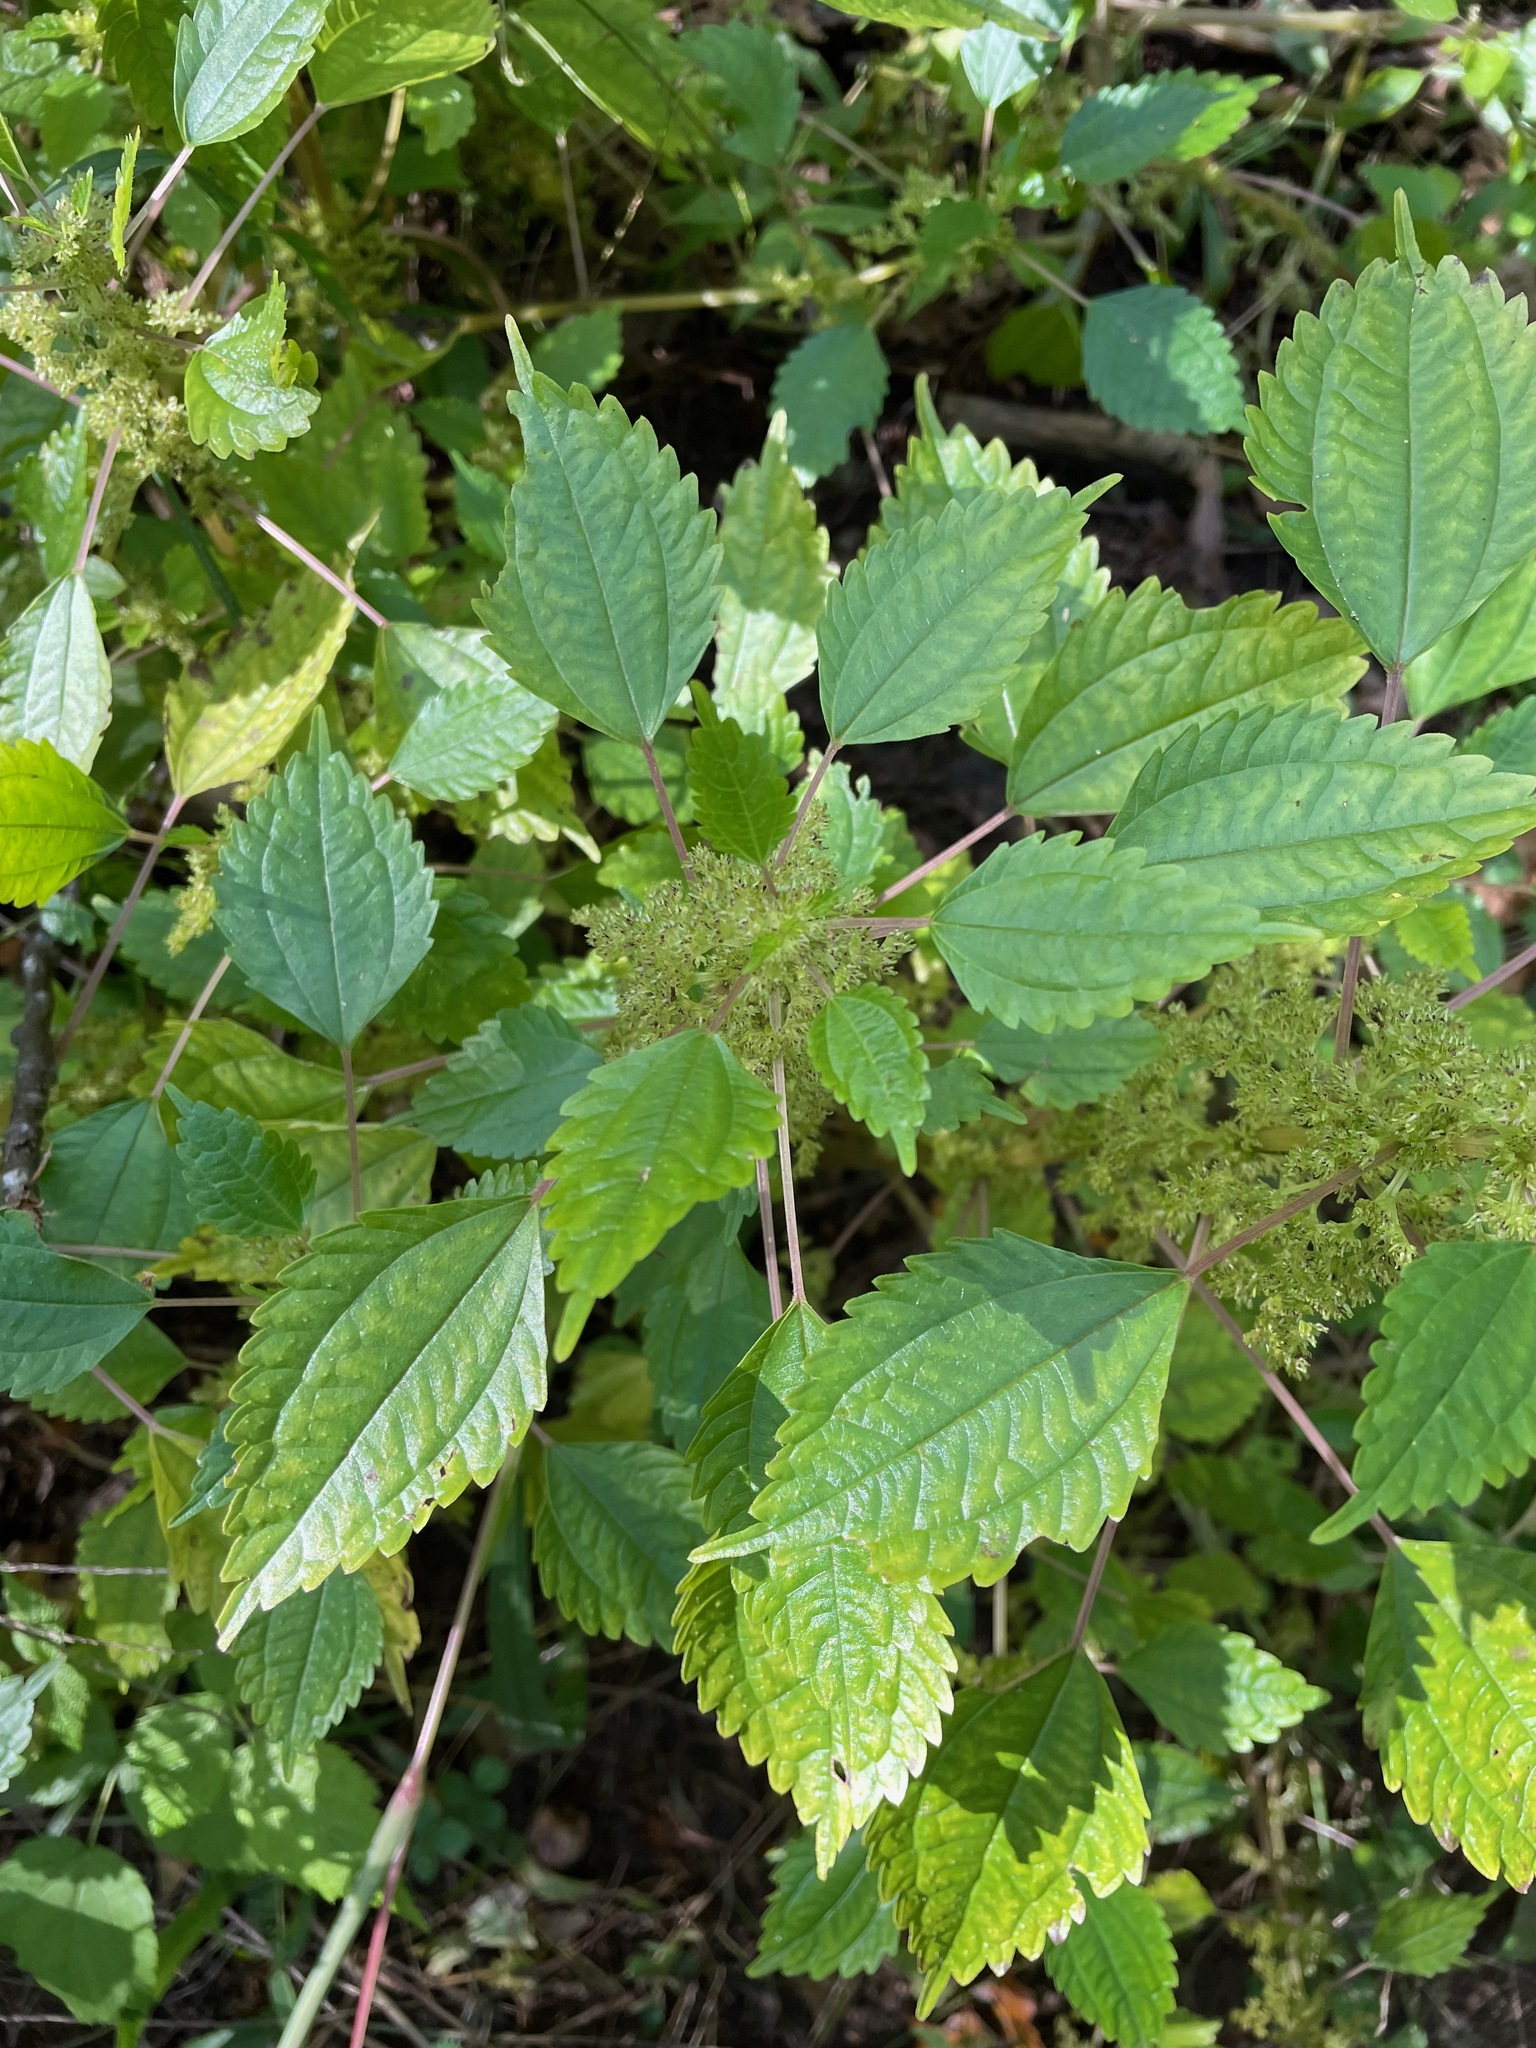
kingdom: Plantae
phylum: Tracheophyta
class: Magnoliopsida
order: Rosales
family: Urticaceae
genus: Pilea
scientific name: Pilea pumila
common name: Clearweed
